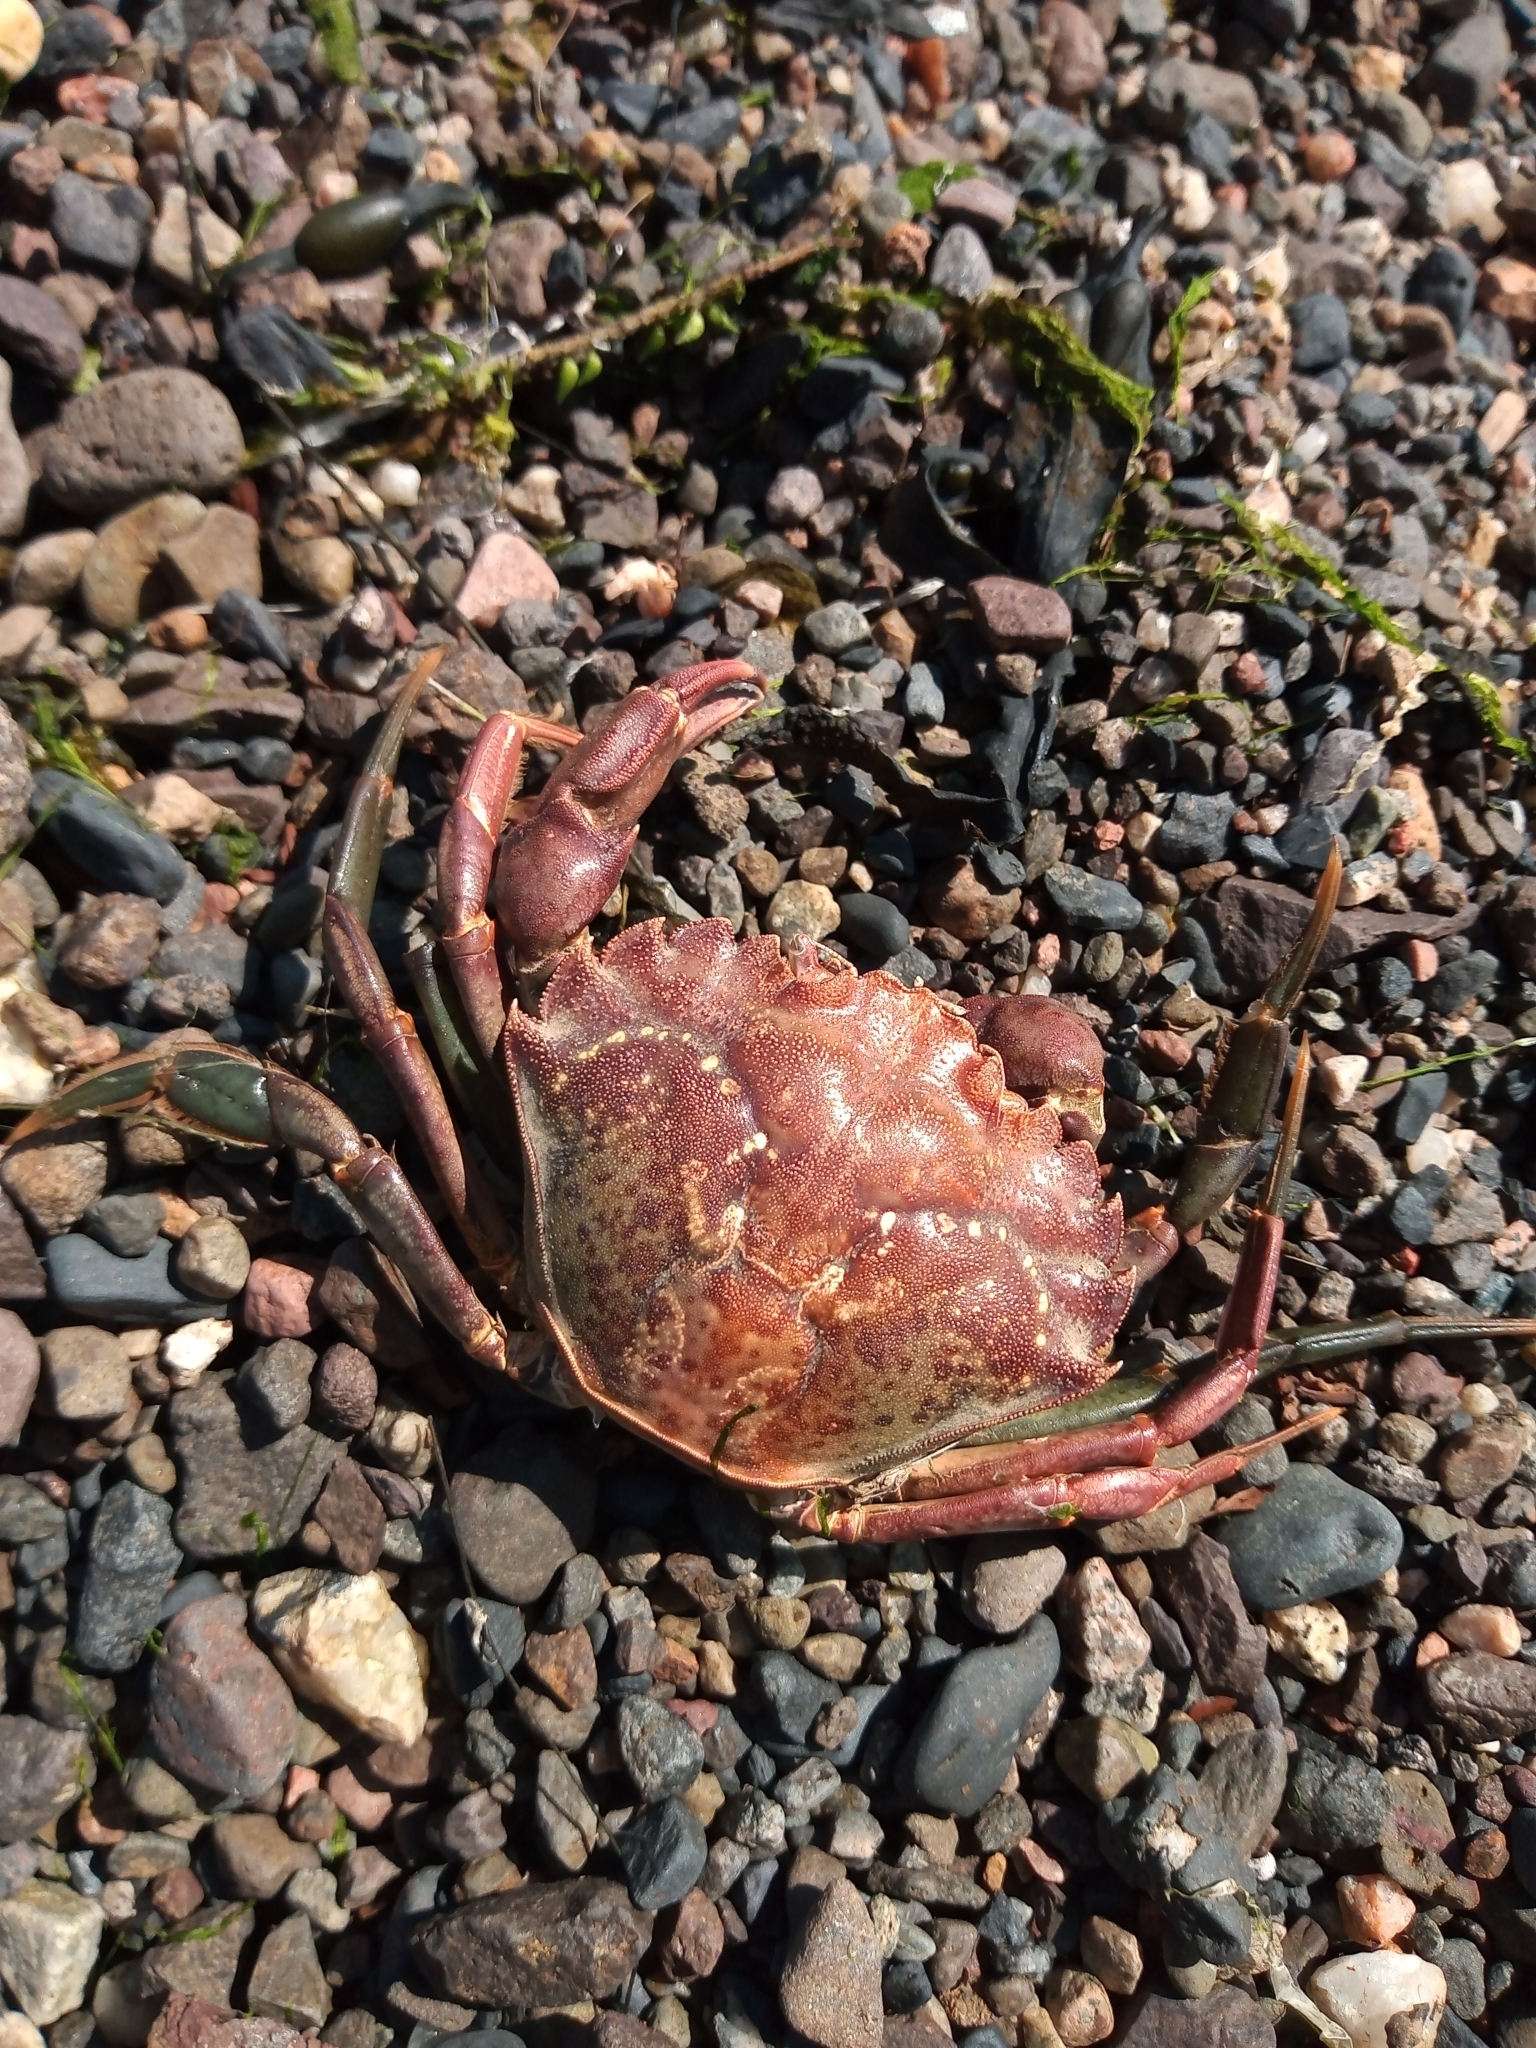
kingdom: Animalia
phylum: Arthropoda
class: Malacostraca
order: Decapoda
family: Carcinidae
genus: Carcinus
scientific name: Carcinus maenas
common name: European green crab
